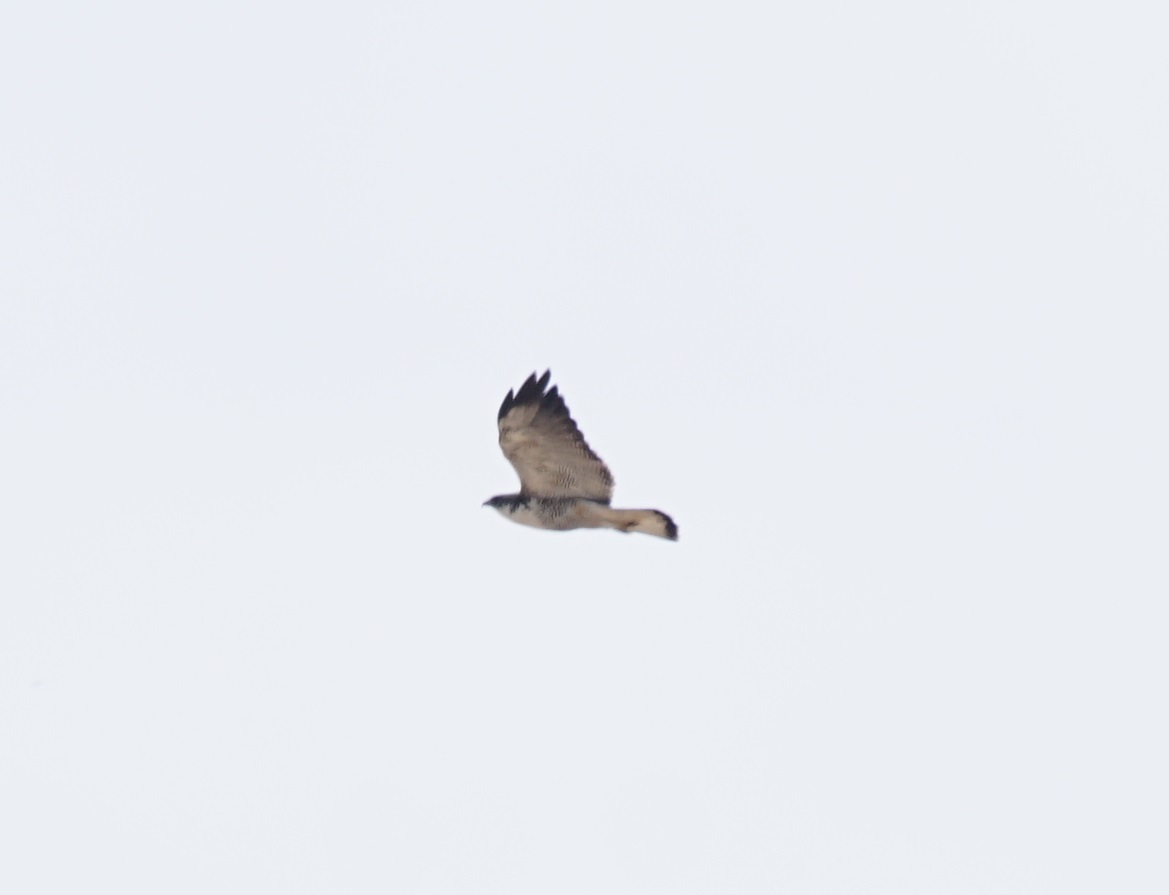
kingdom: Animalia
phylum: Chordata
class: Aves
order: Accipitriformes
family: Accipitridae
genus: Buteo
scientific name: Buteo polyosoma
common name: Variable hawk
